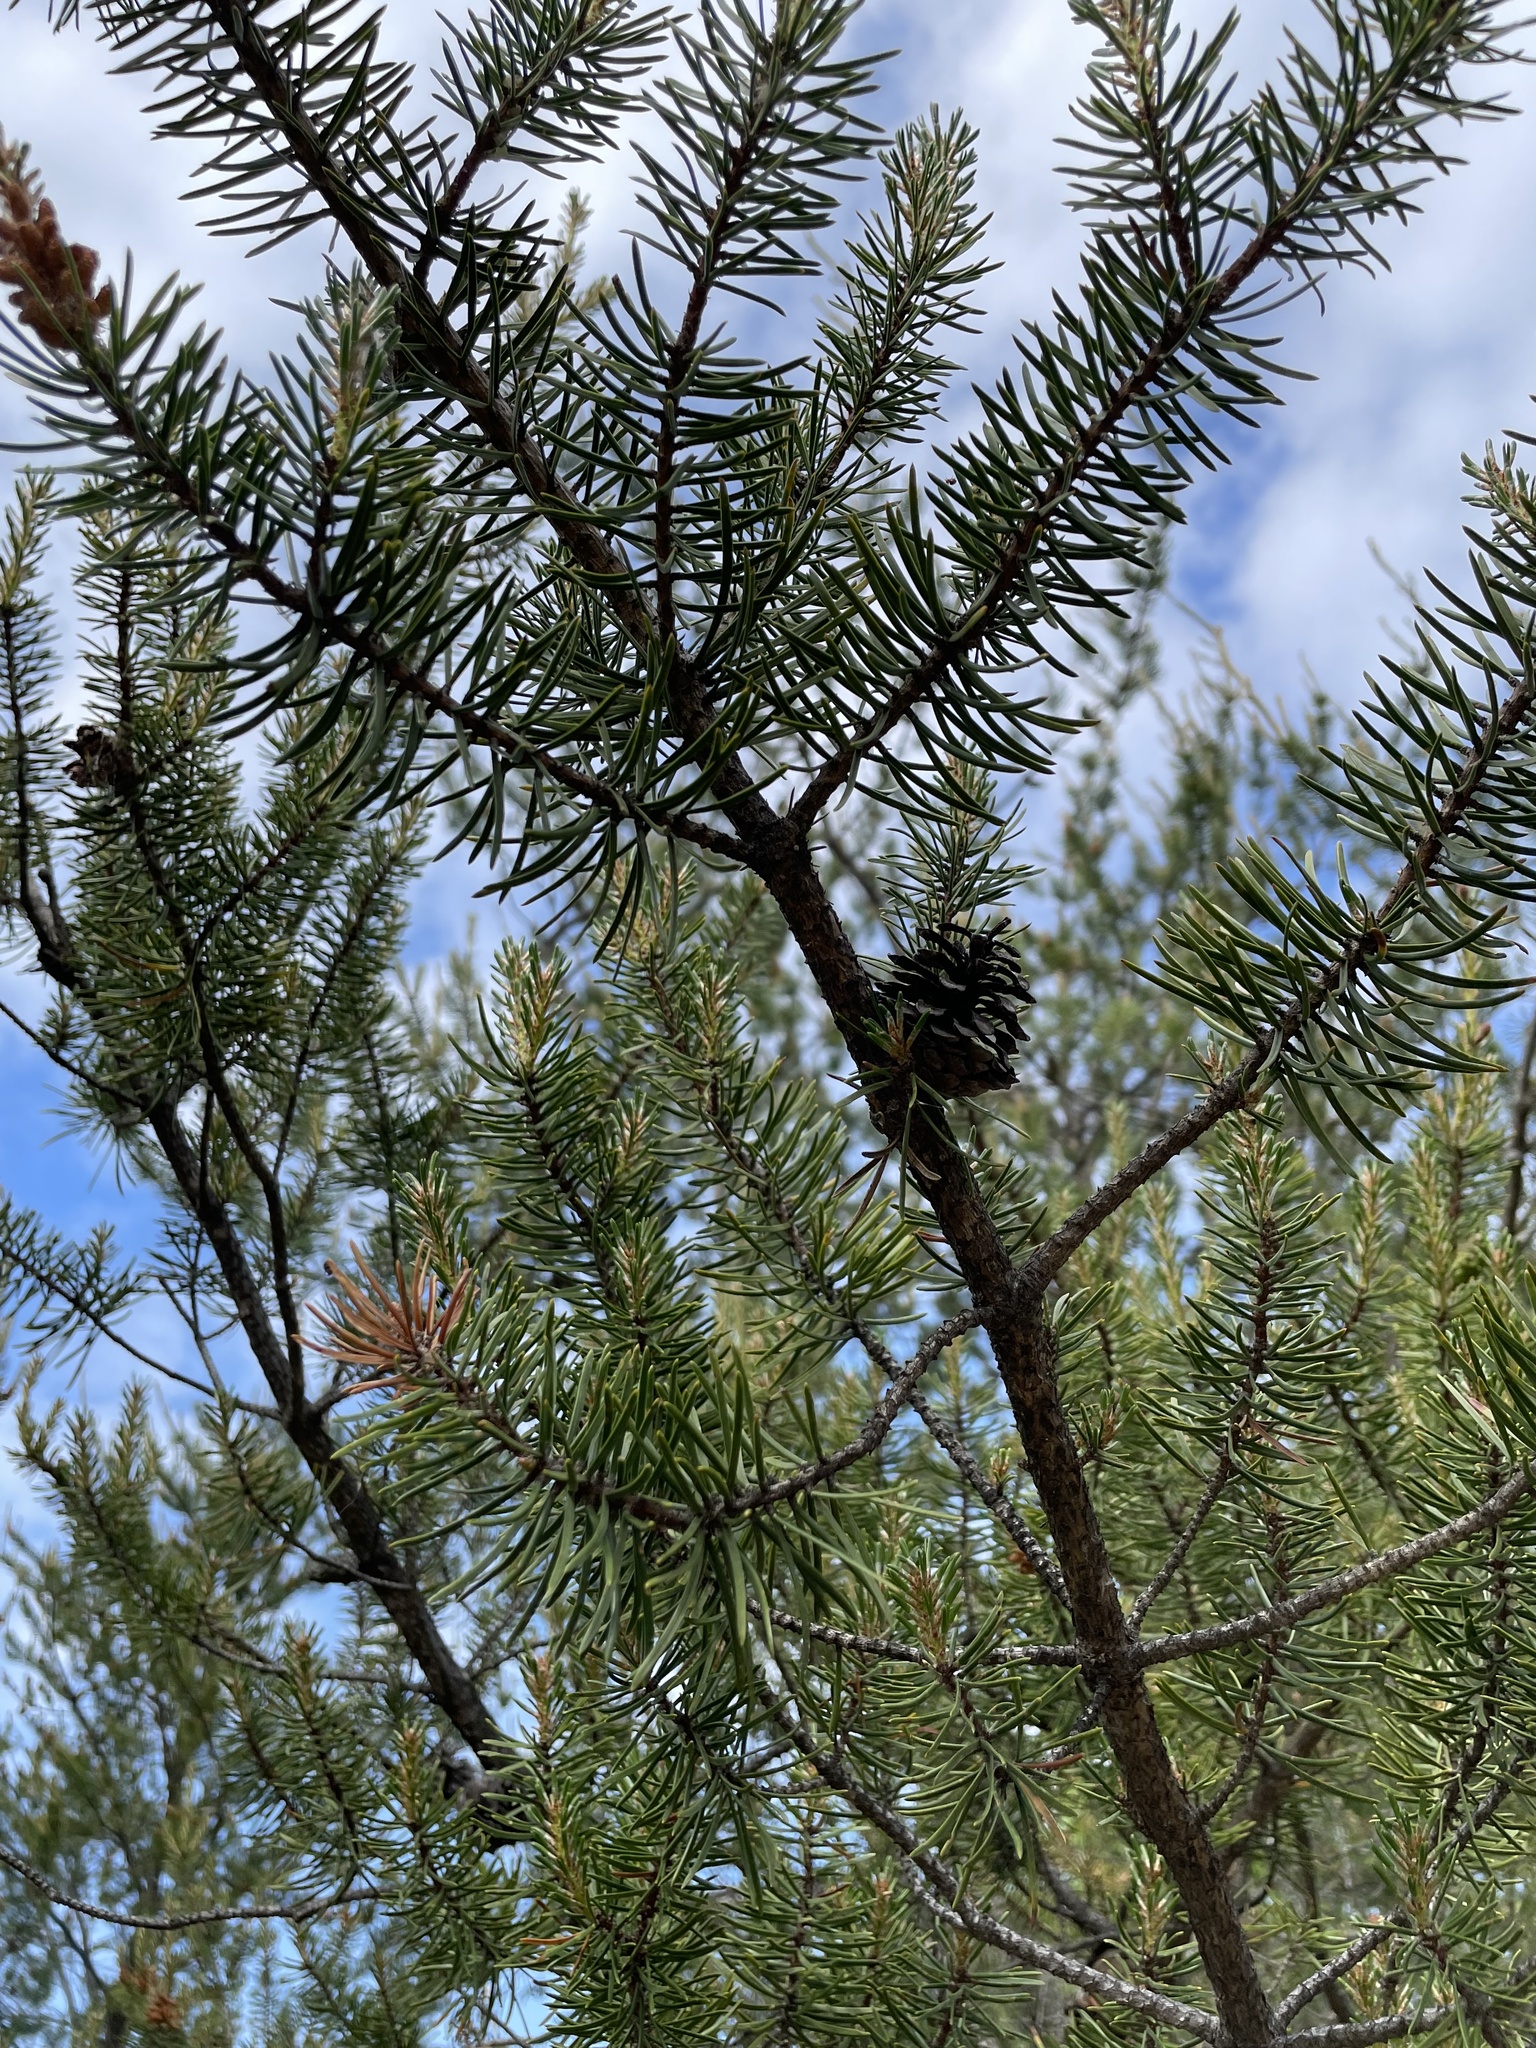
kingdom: Plantae
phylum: Tracheophyta
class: Pinopsida
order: Pinales
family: Pinaceae
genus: Pinus
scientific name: Pinus banksiana
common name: Jack pine
